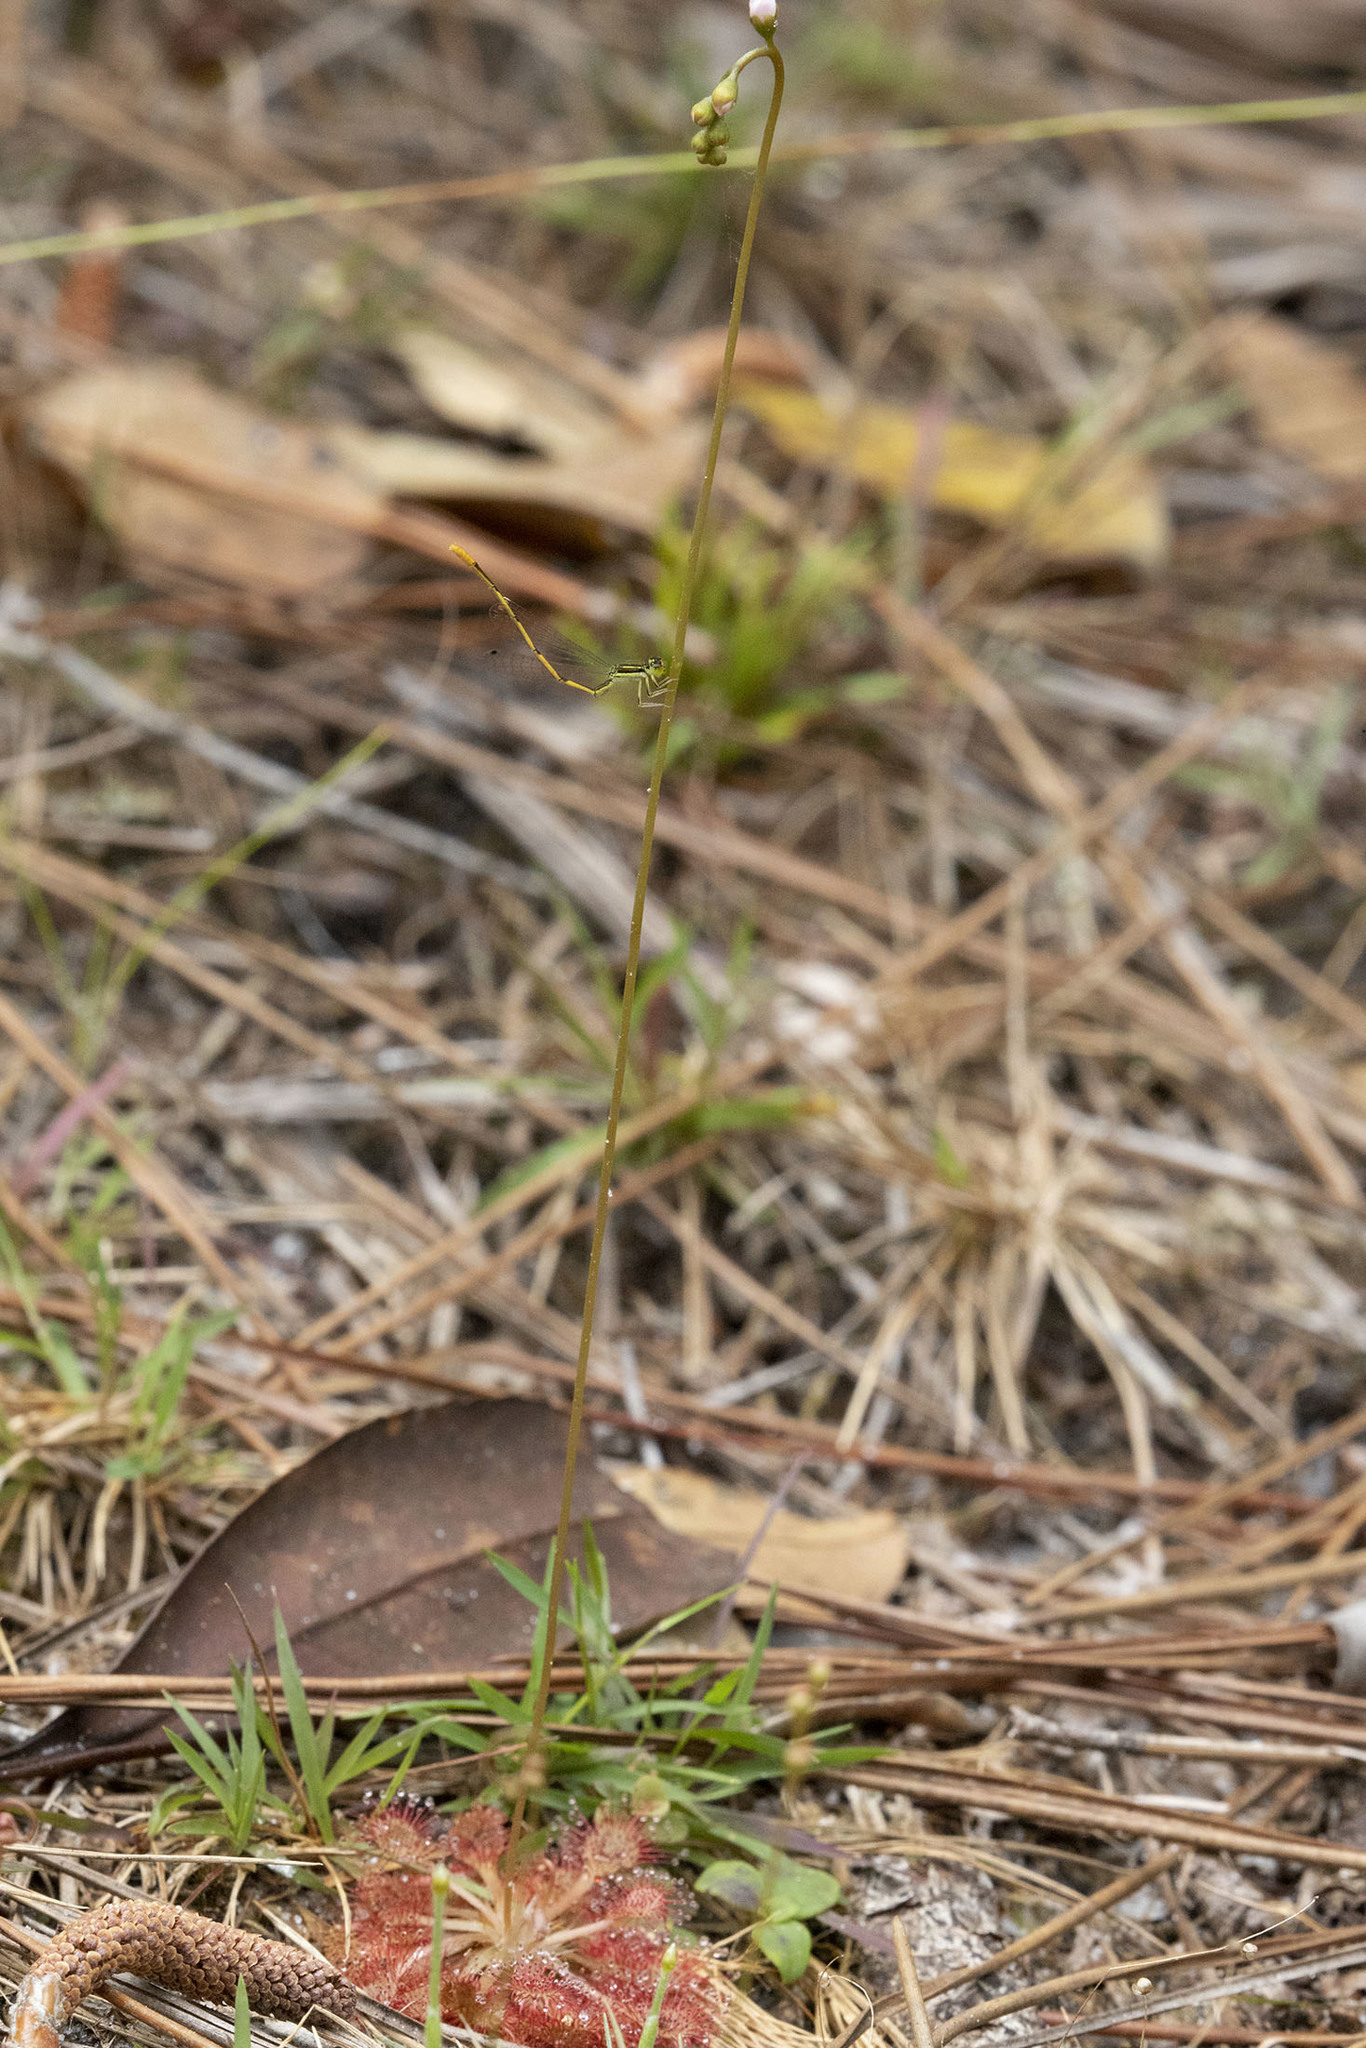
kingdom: Animalia
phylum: Arthropoda
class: Insecta
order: Odonata
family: Coenagrionidae
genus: Ischnura
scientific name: Ischnura hastata
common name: Citrine forktail
